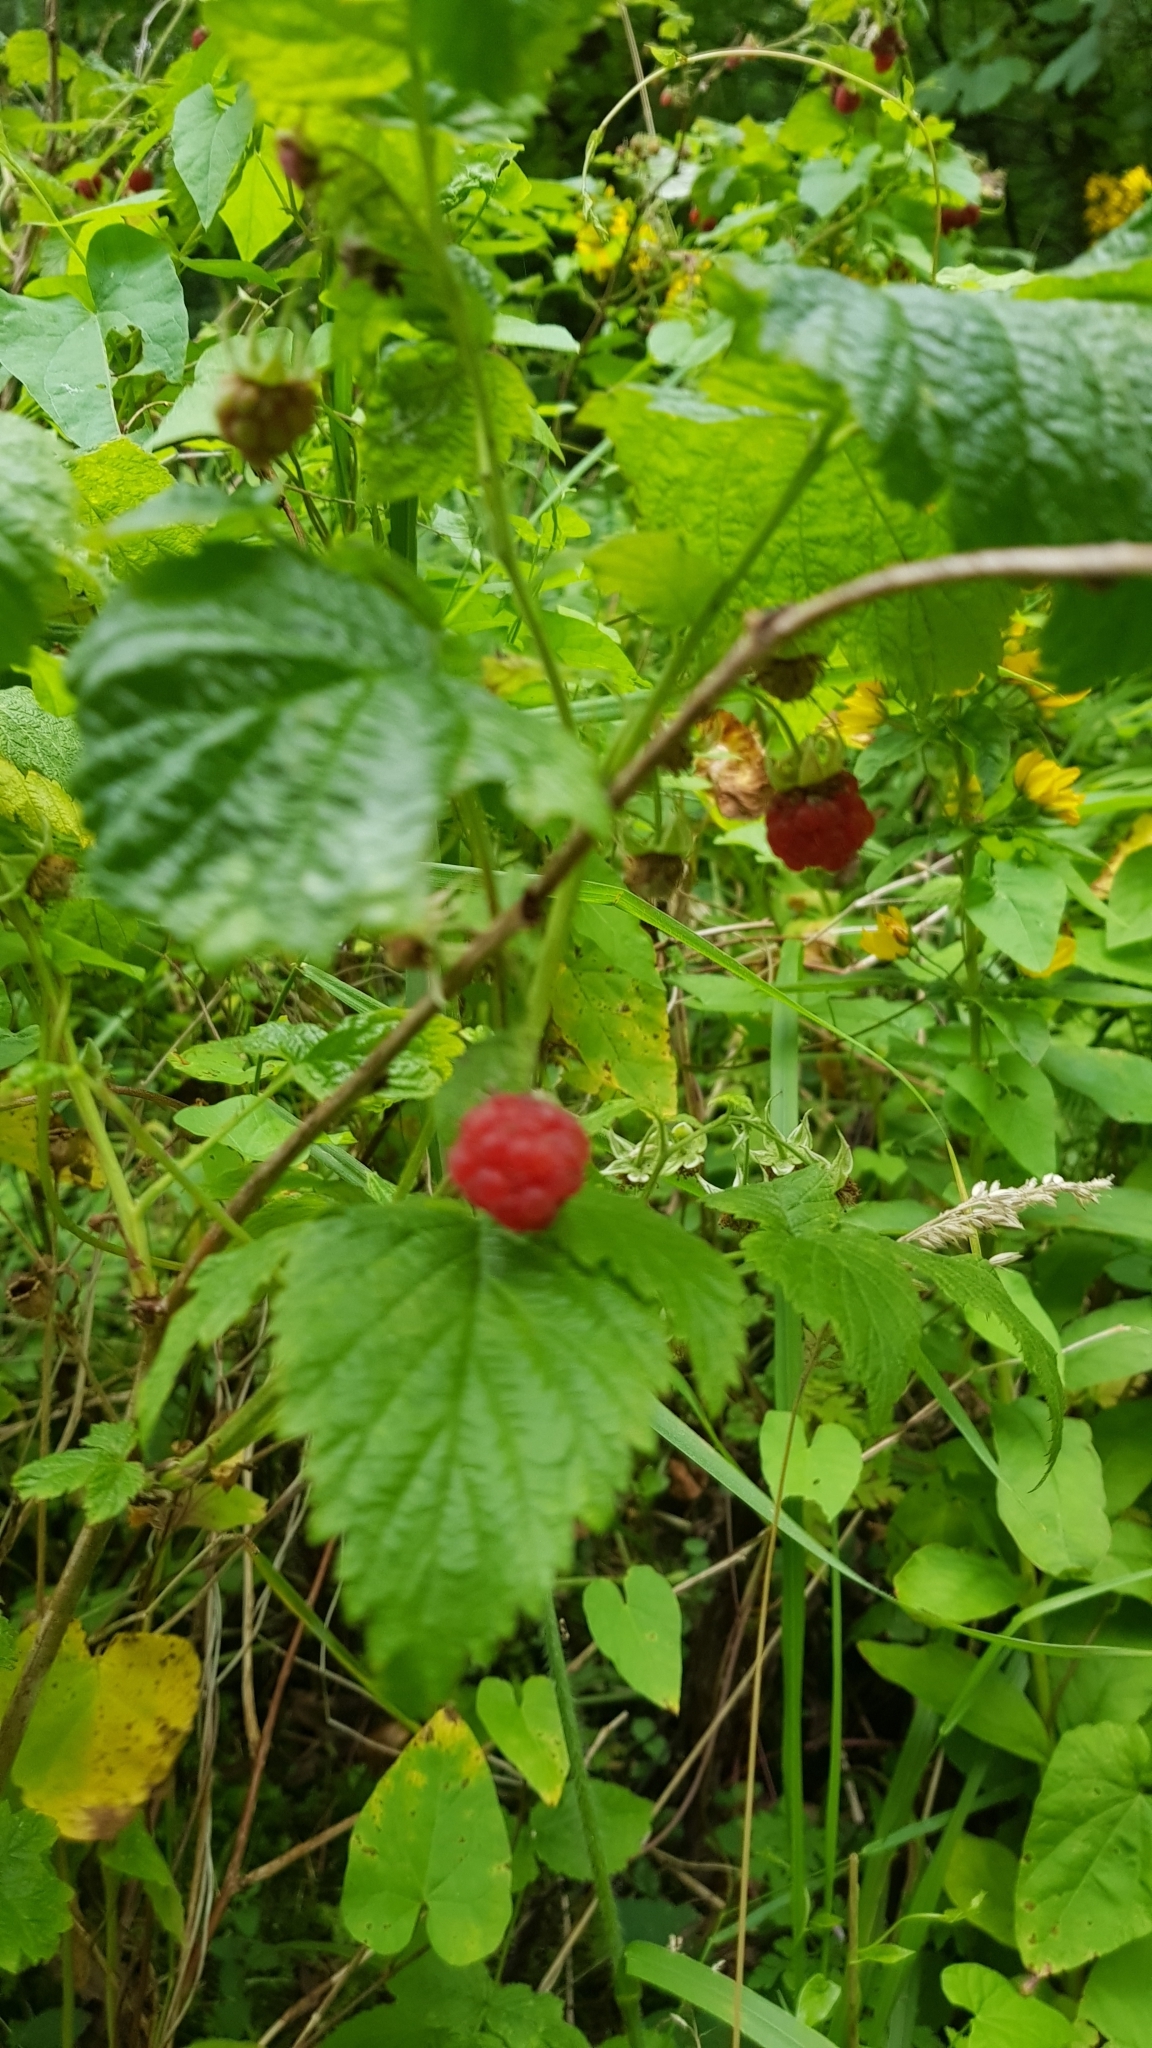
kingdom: Plantae
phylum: Tracheophyta
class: Magnoliopsida
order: Rosales
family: Rosaceae
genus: Rubus
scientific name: Rubus idaeus
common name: Raspberry
